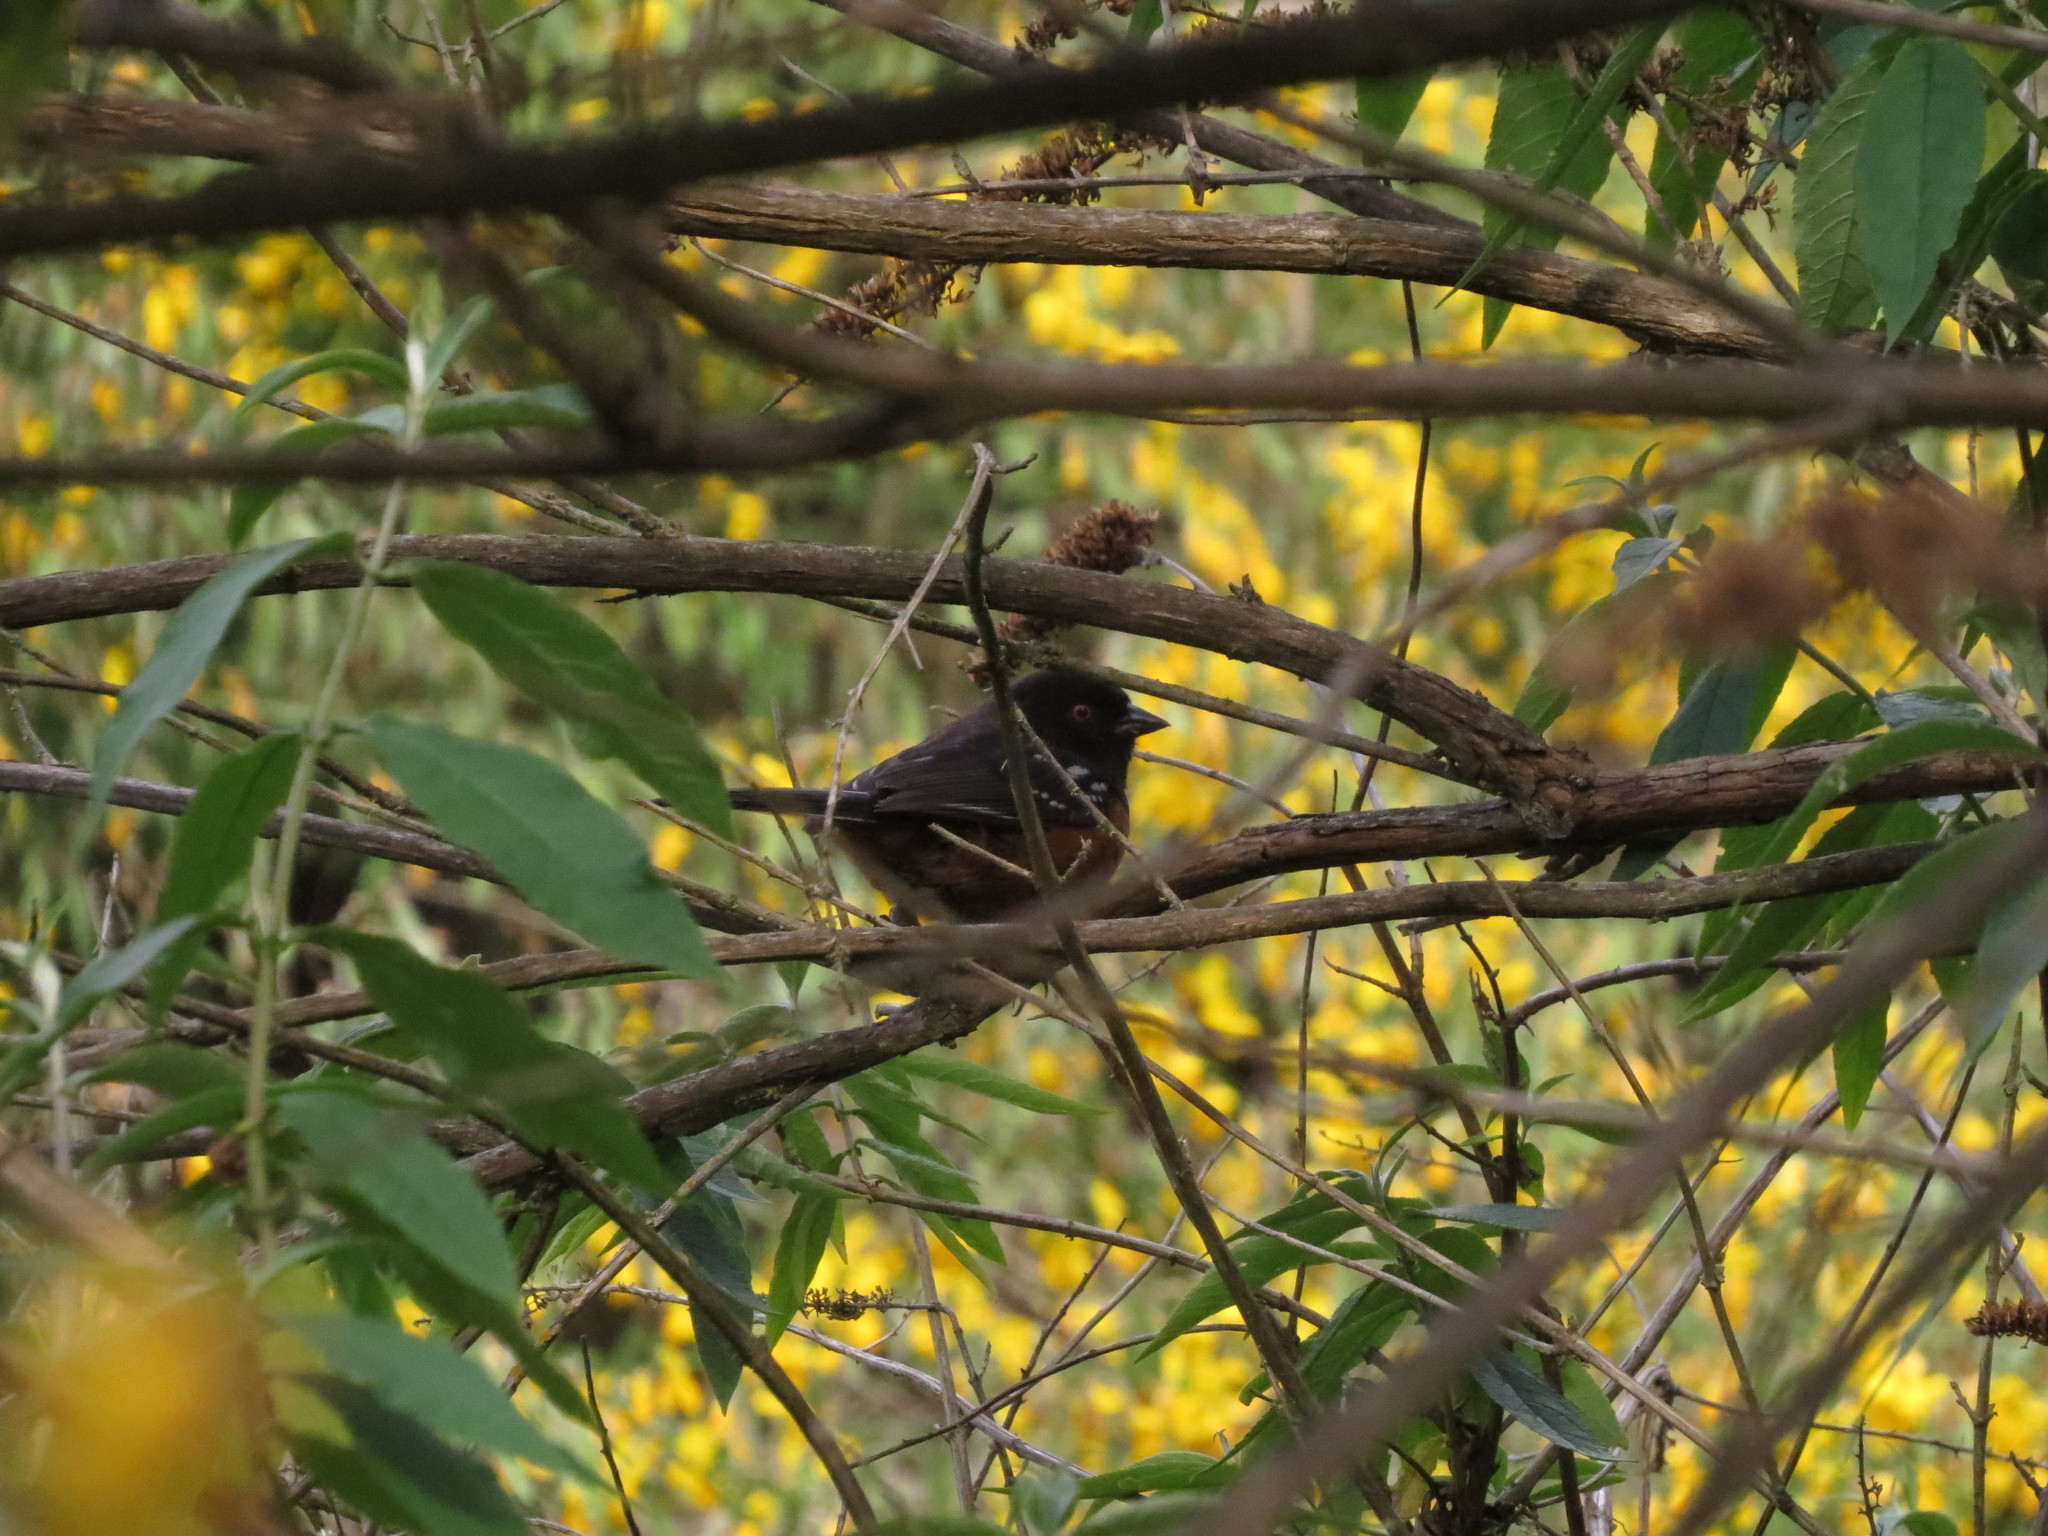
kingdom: Animalia
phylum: Chordata
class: Aves
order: Passeriformes
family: Passerellidae
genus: Pipilo
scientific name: Pipilo maculatus
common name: Spotted towhee
